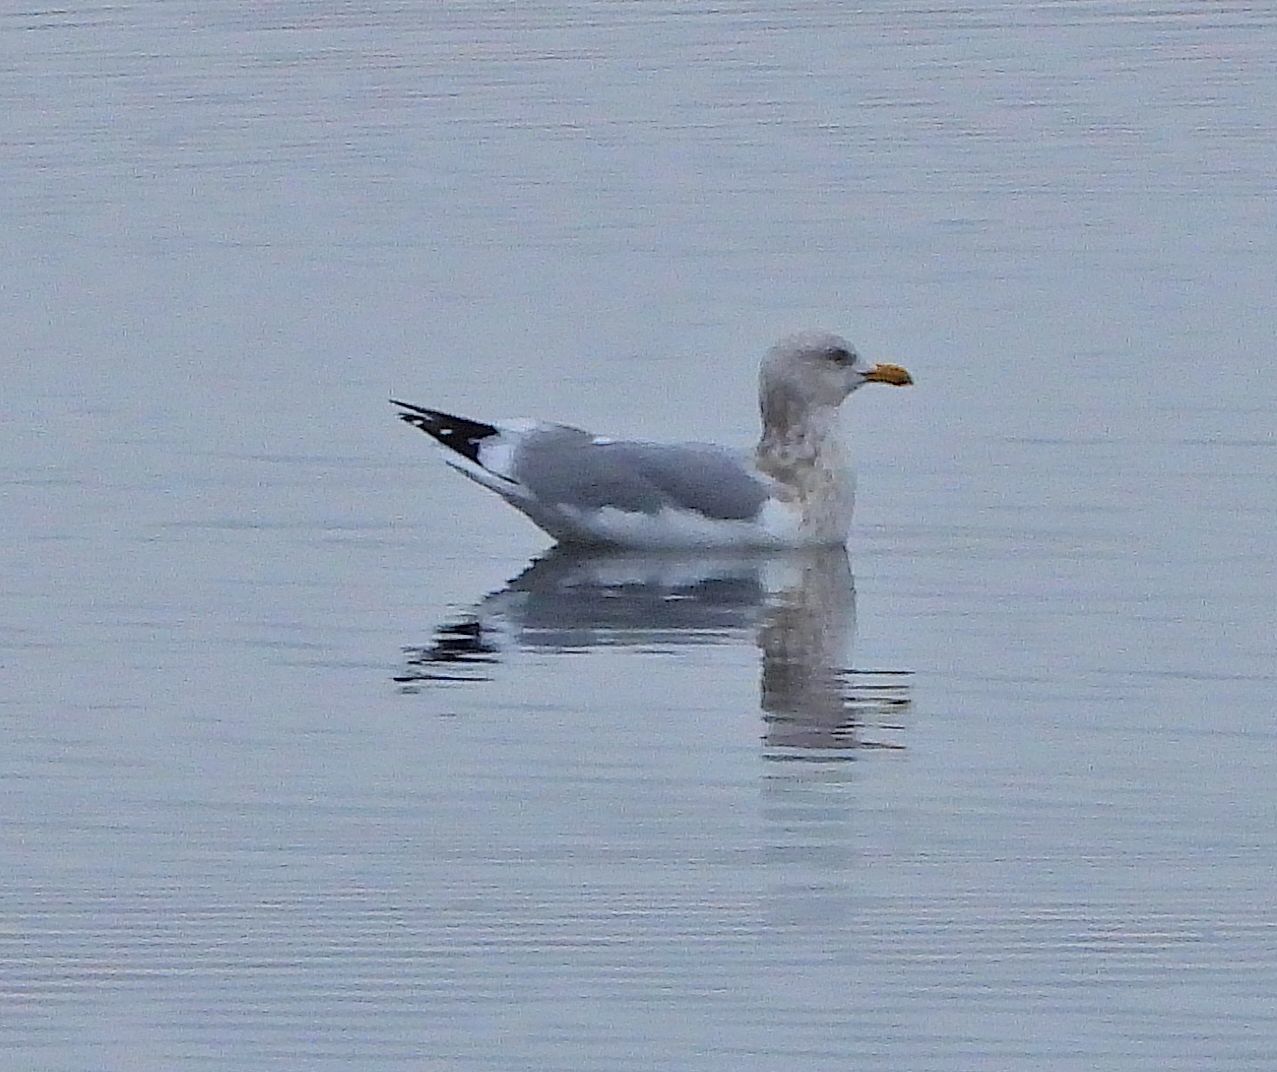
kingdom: Animalia
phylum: Chordata
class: Aves
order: Charadriiformes
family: Laridae
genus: Larus
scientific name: Larus argentatus
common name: Herring gull
